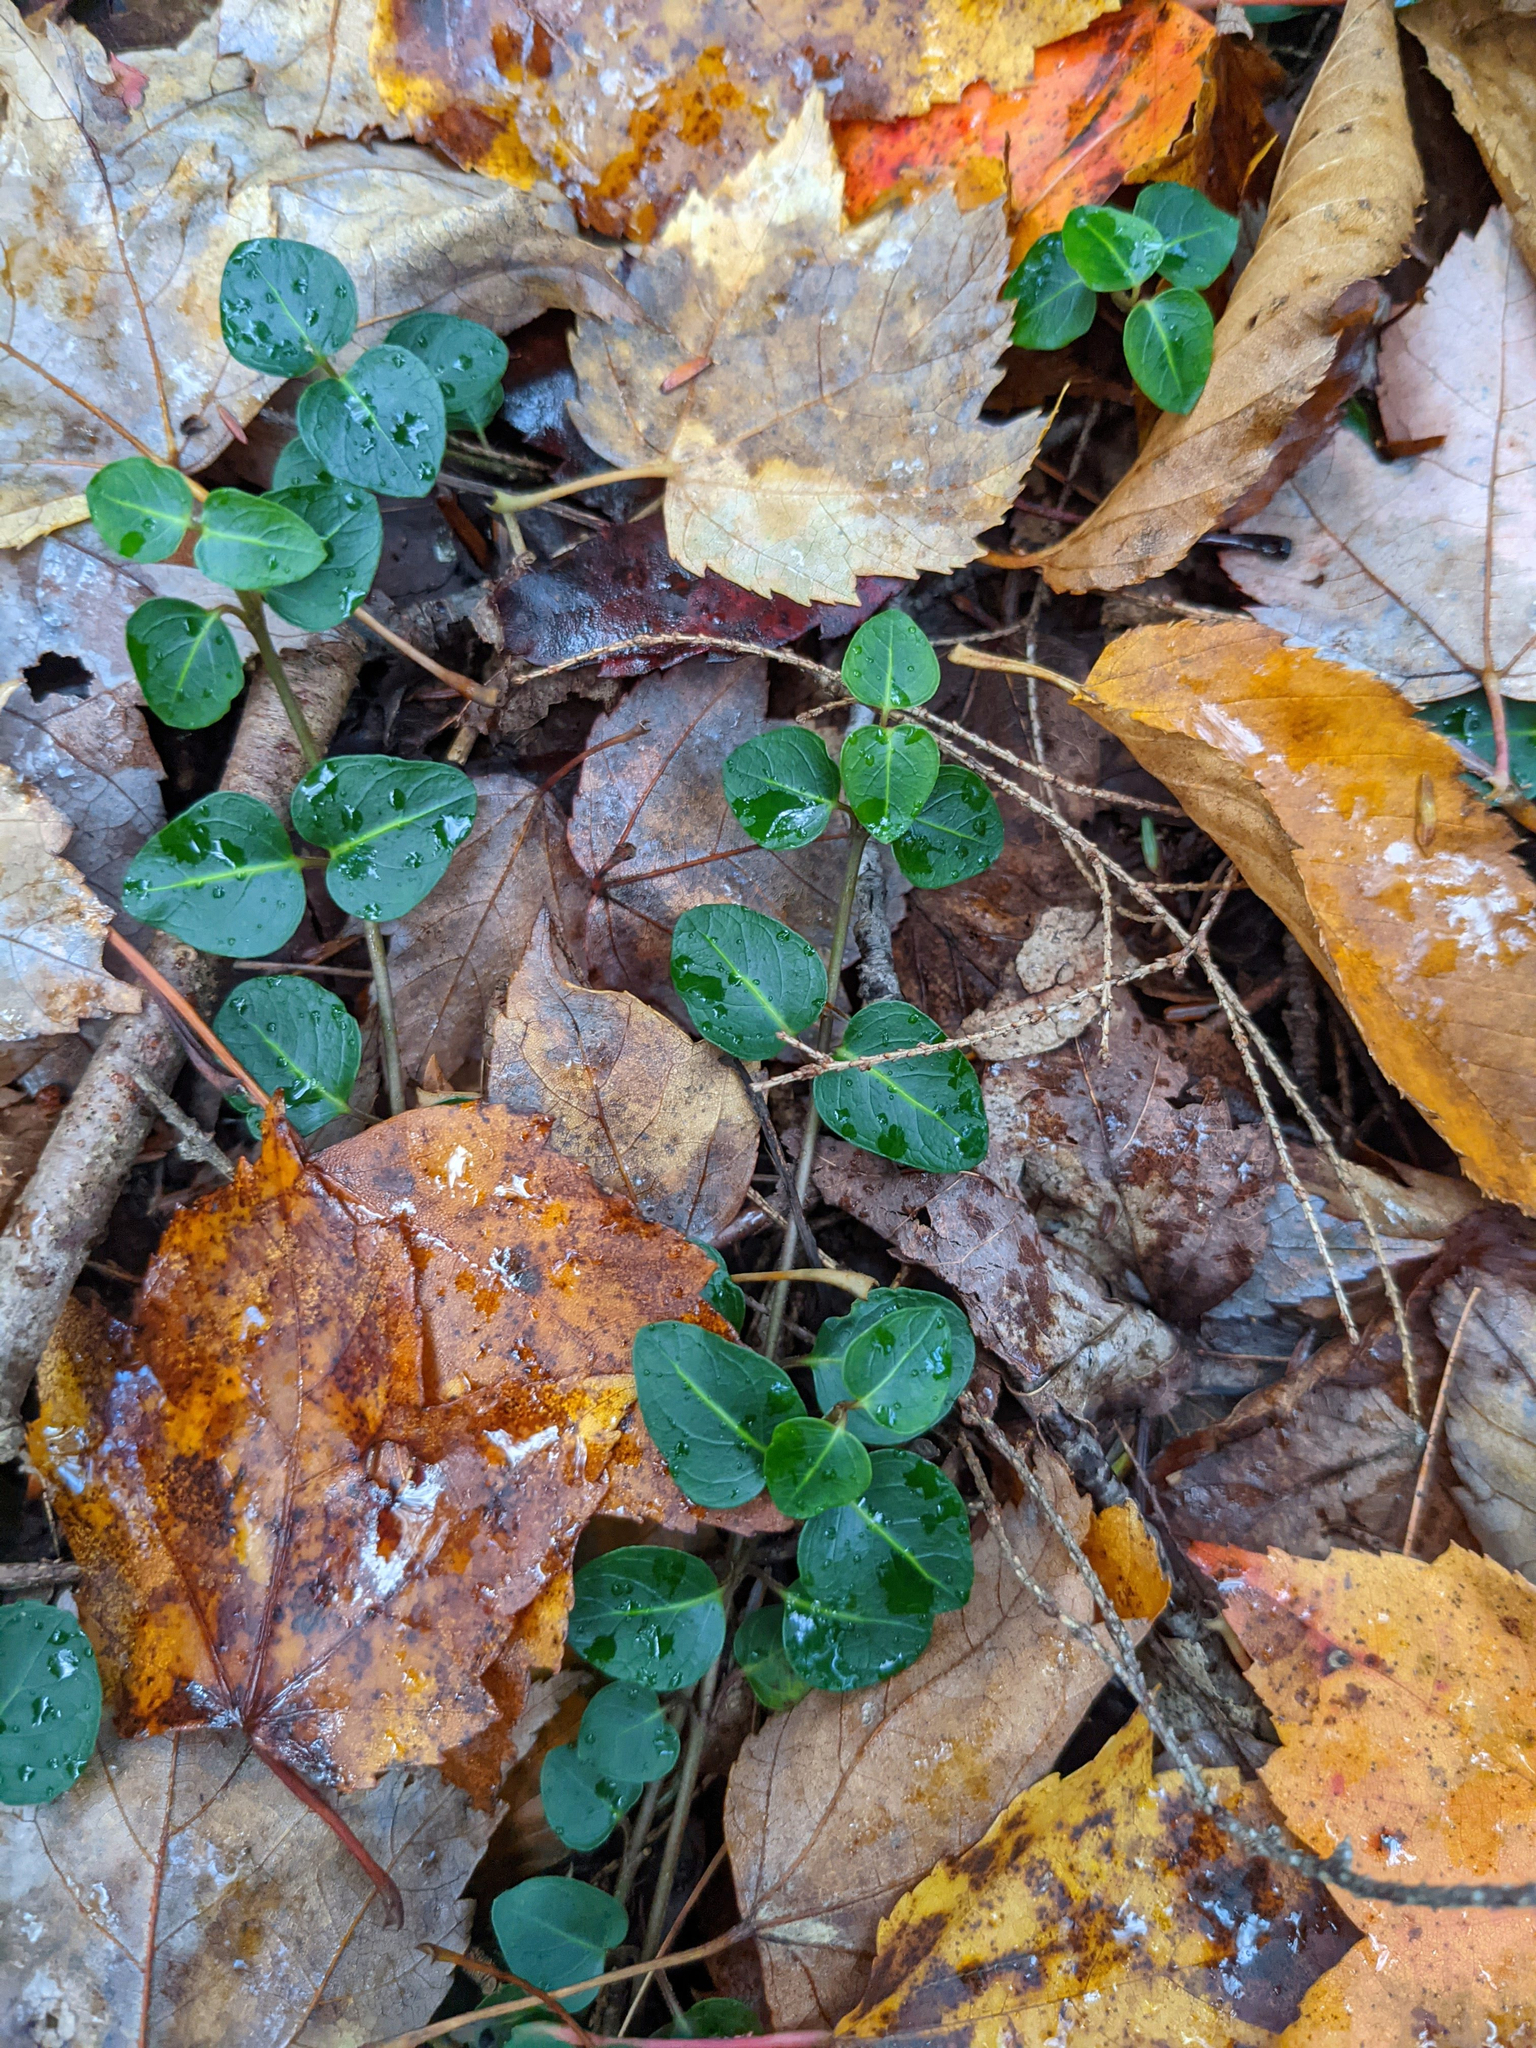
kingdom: Plantae
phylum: Tracheophyta
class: Magnoliopsida
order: Gentianales
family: Rubiaceae
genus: Mitchella
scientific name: Mitchella repens
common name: Partridge-berry
